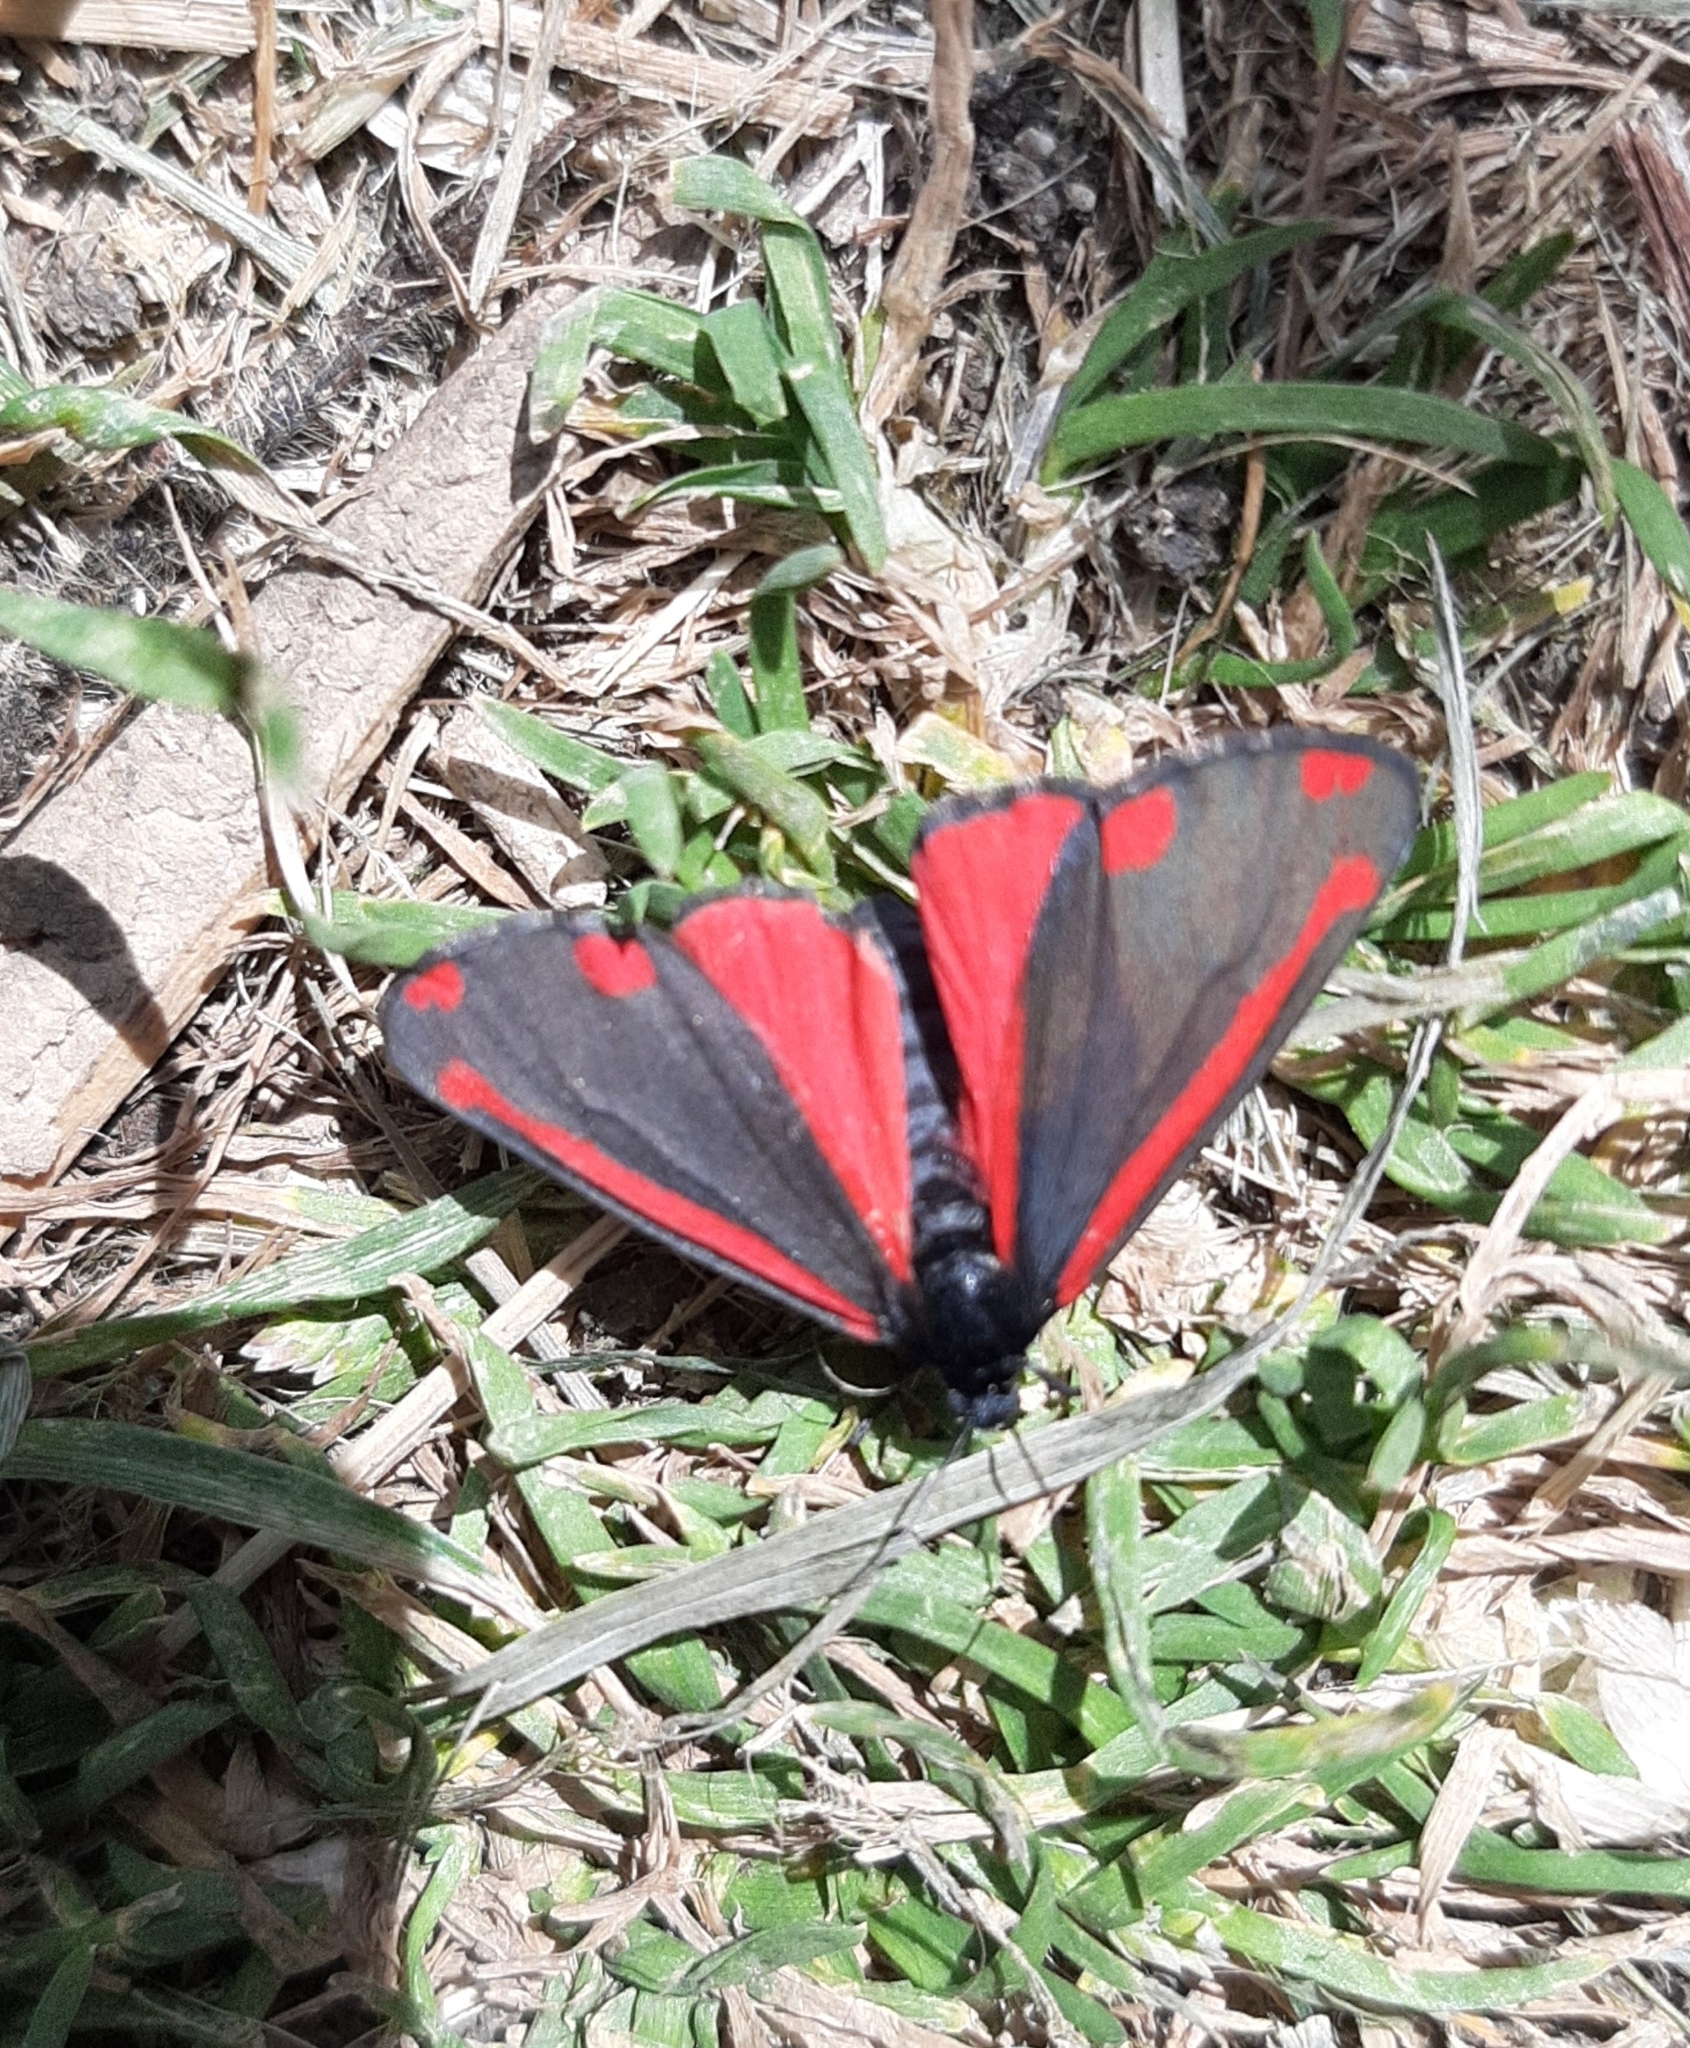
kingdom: Animalia
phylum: Arthropoda
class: Insecta
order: Lepidoptera
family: Erebidae
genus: Tyria
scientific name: Tyria jacobaeae
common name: Cinnabar
